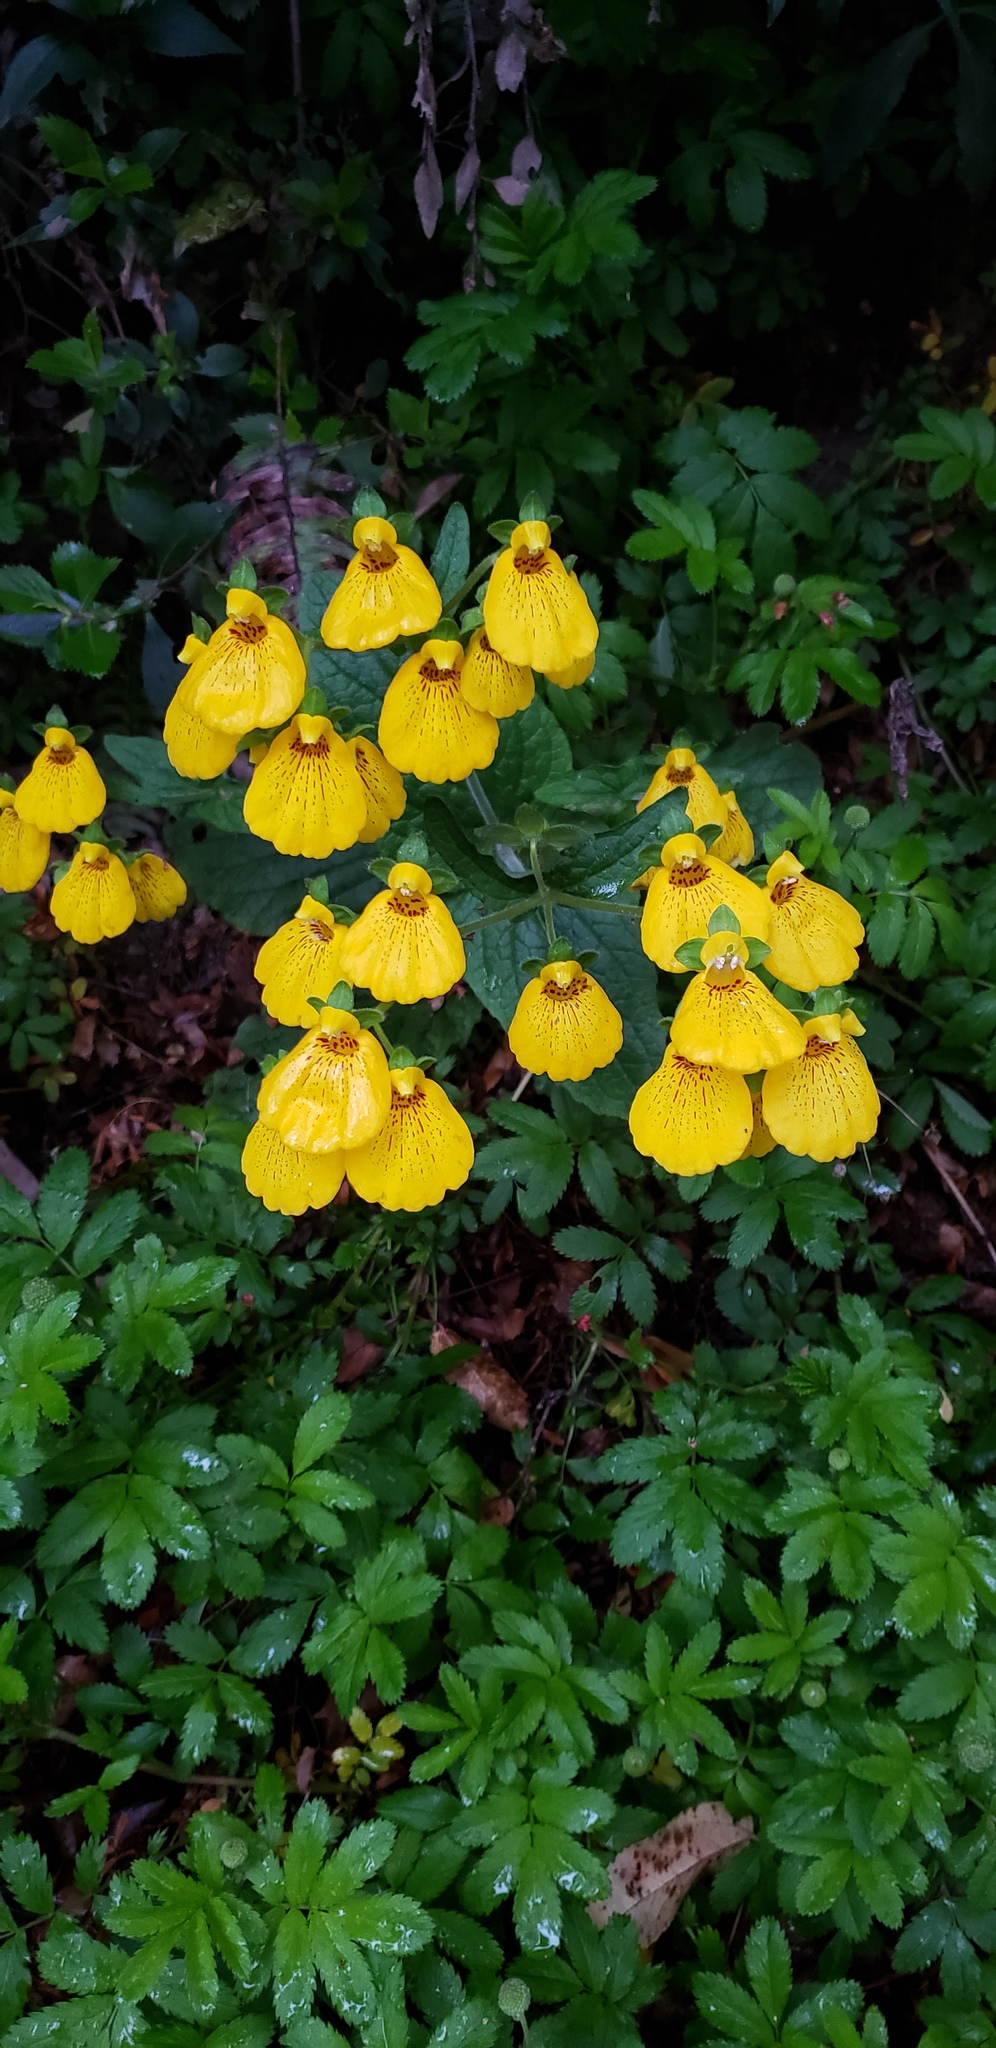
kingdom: Plantae
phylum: Tracheophyta
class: Magnoliopsida
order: Lamiales
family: Calceolariaceae
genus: Calceolaria
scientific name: Calceolaria crenatiflora
